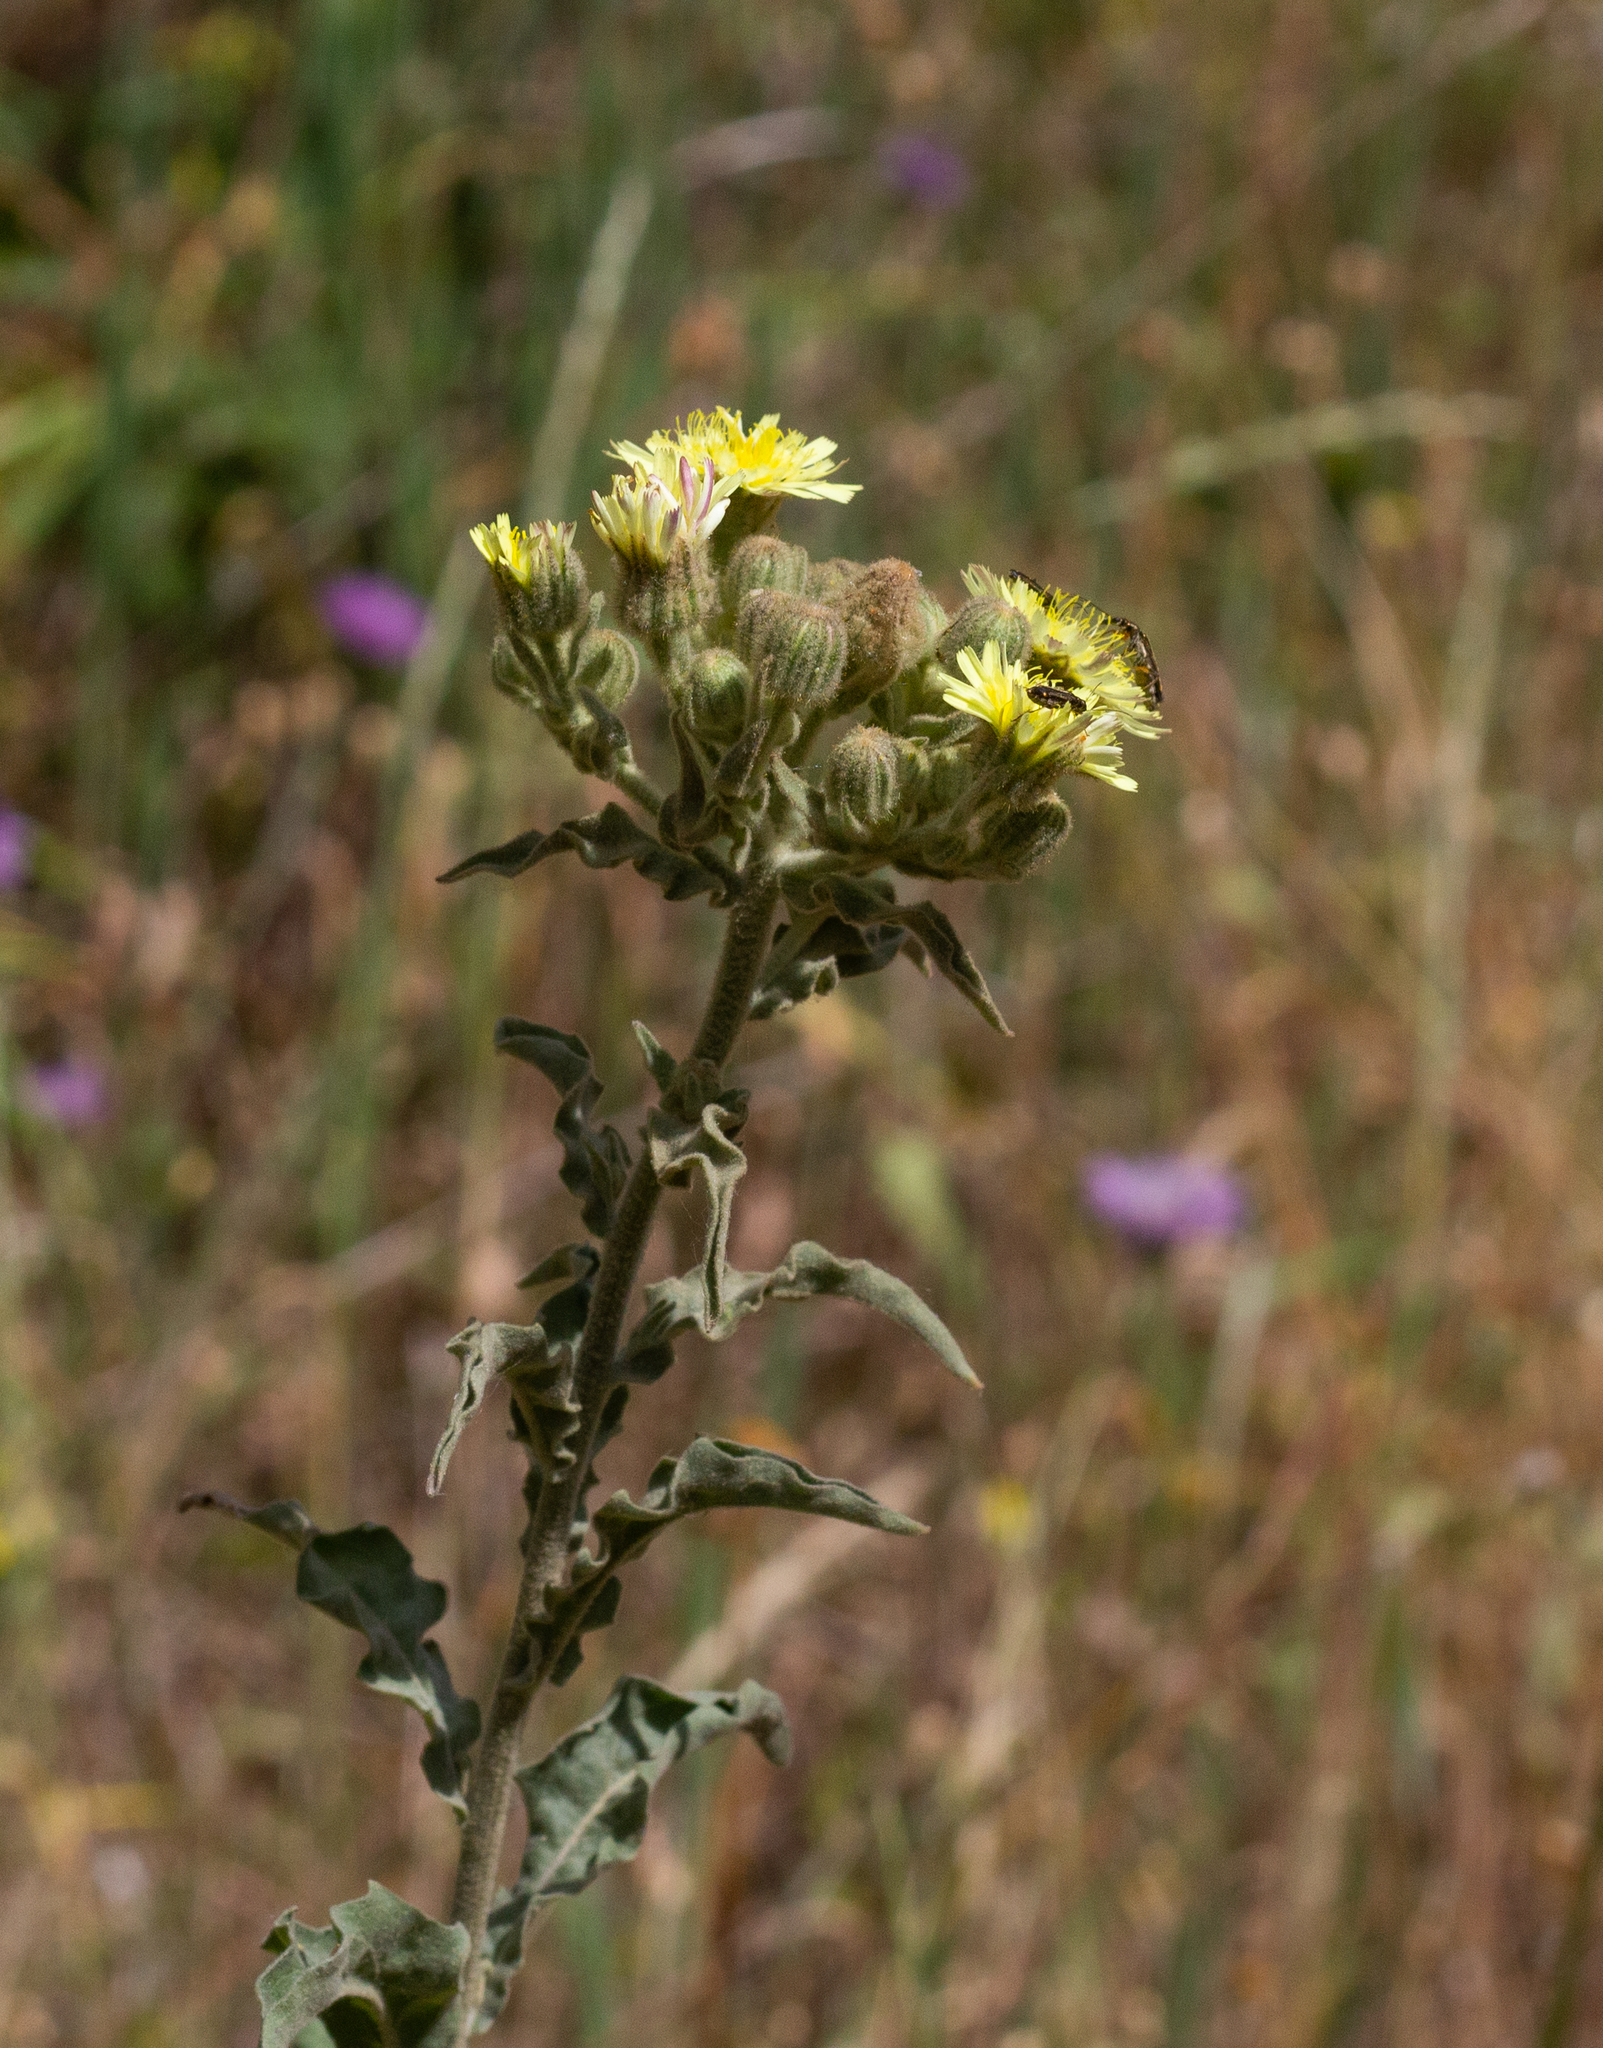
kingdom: Plantae
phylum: Tracheophyta
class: Magnoliopsida
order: Asterales
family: Asteraceae
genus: Andryala
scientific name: Andryala integrifolia
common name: Common andryala
